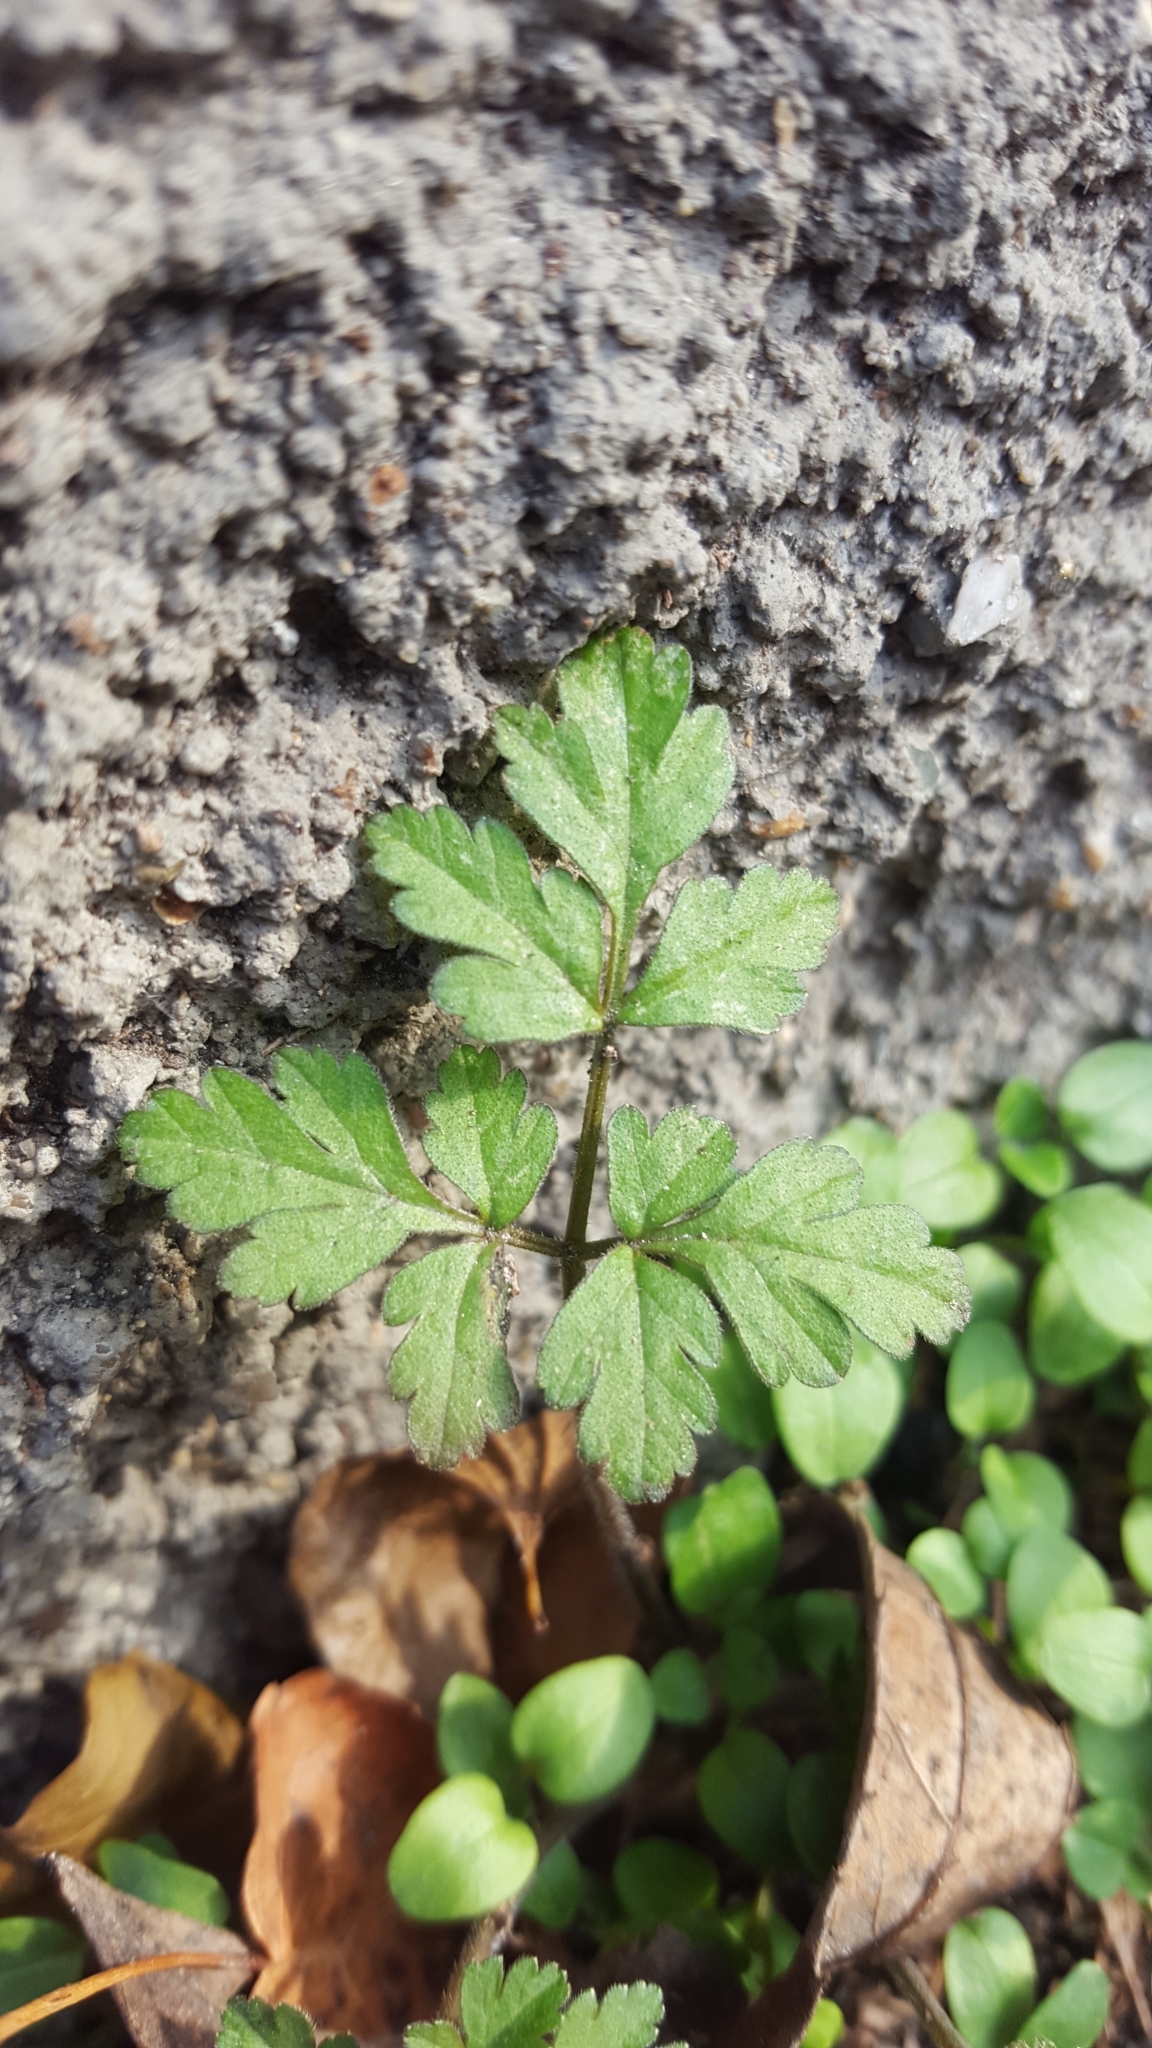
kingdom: Plantae
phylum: Tracheophyta
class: Magnoliopsida
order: Geraniales
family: Geraniaceae
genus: Geranium
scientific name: Geranium robertianum
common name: Herb-robert
